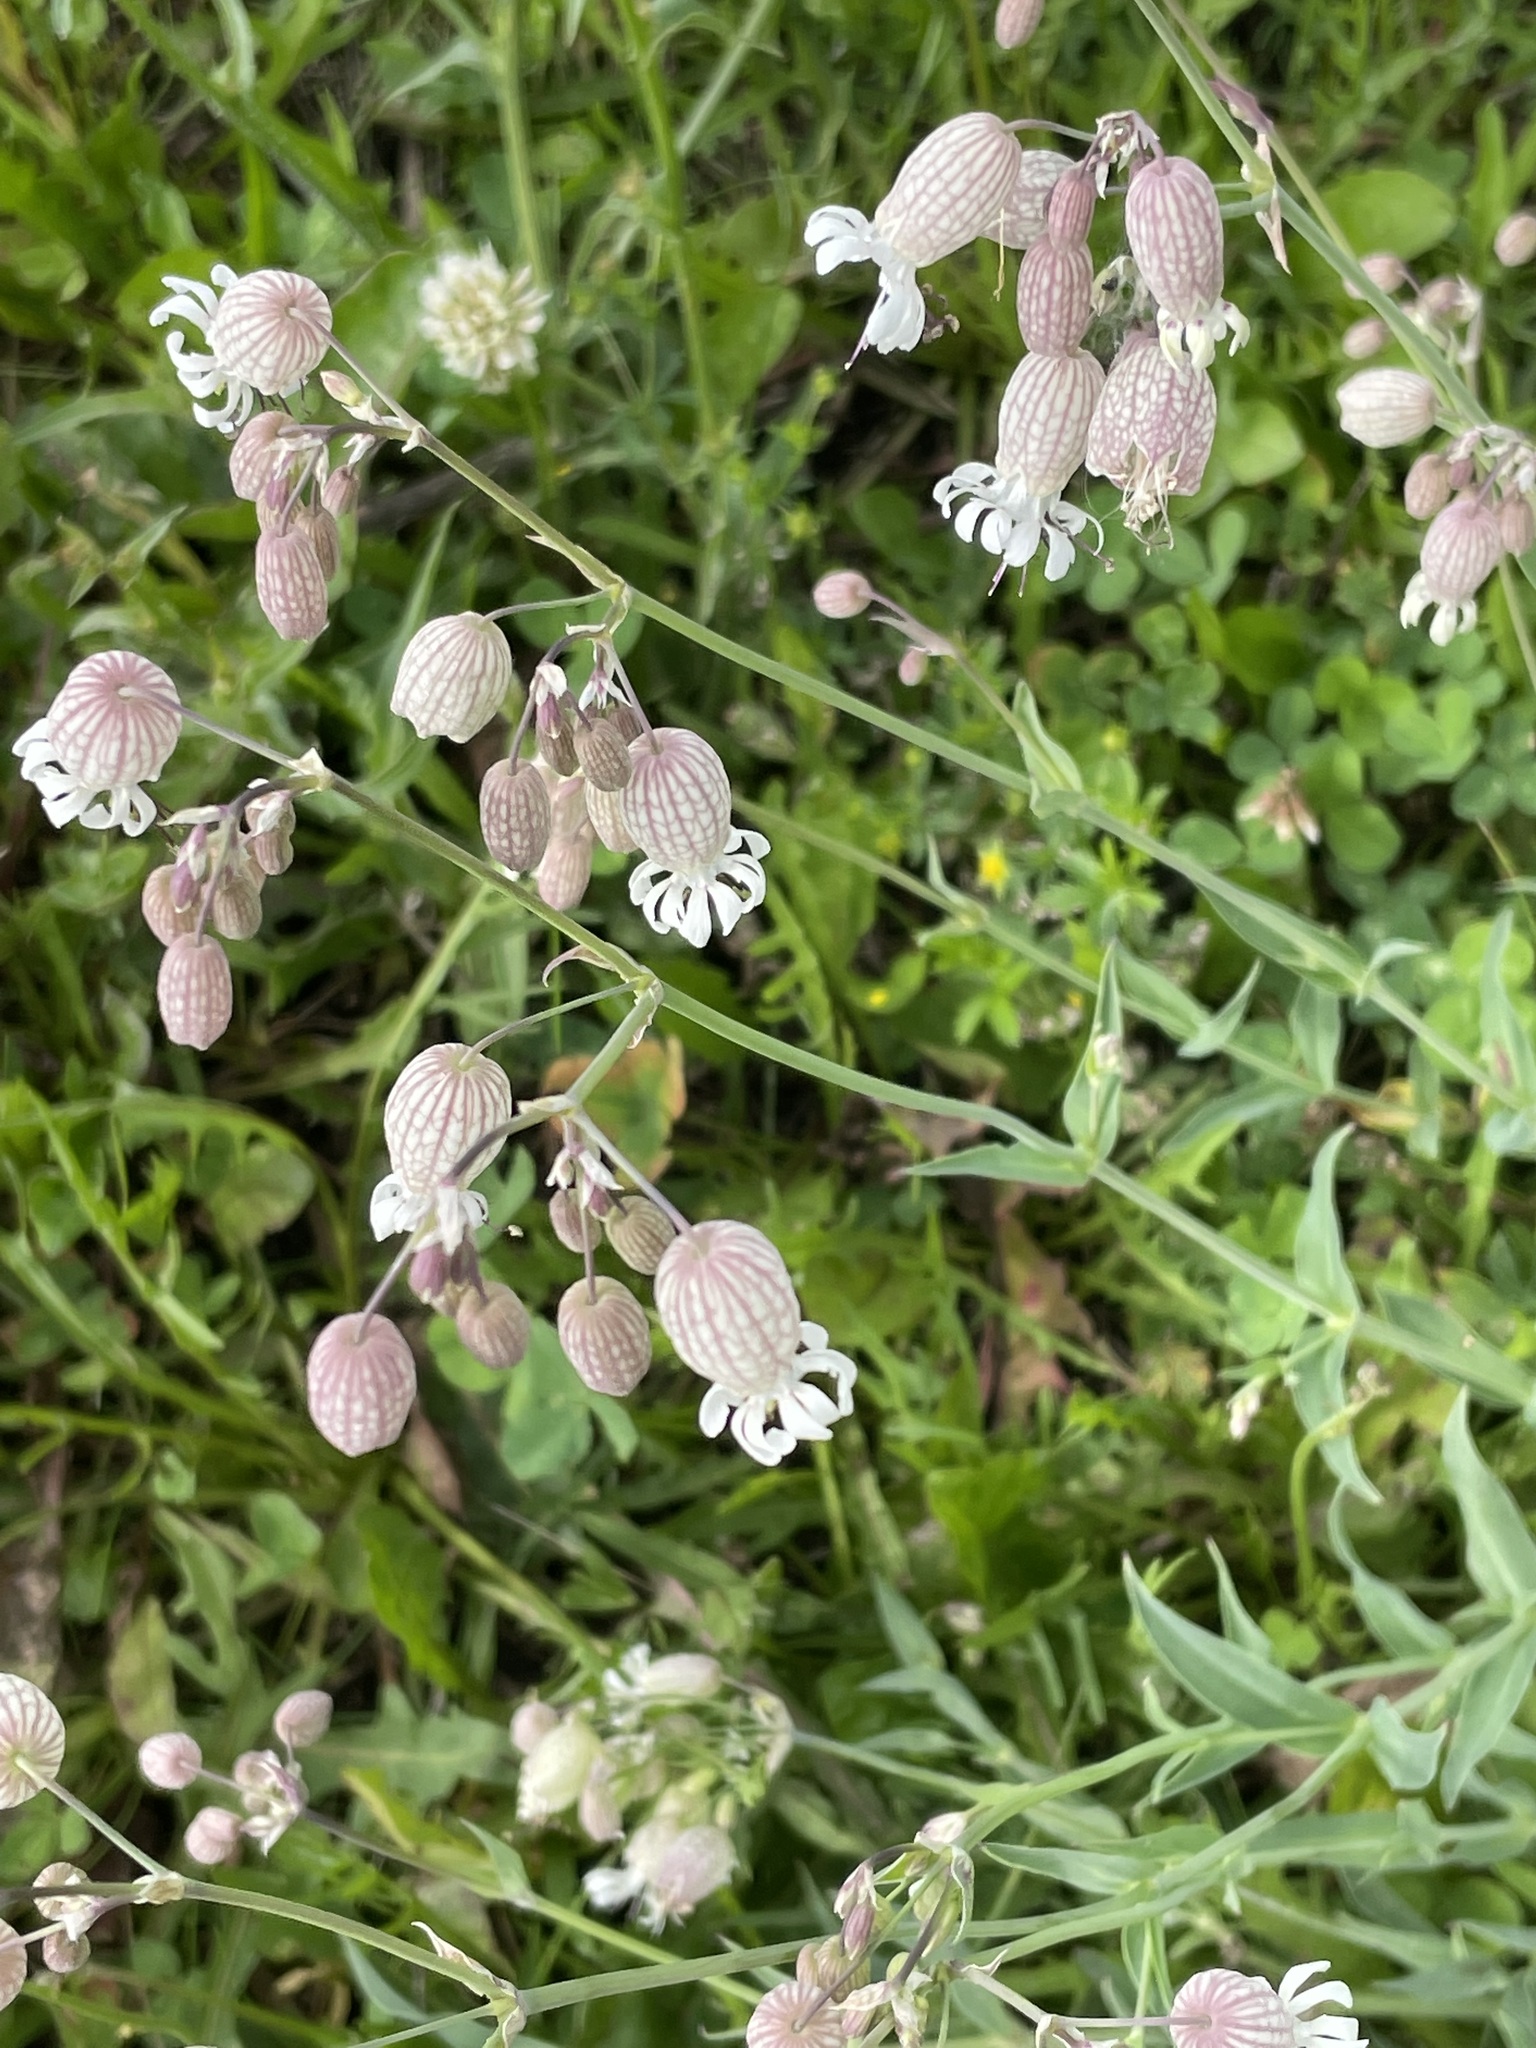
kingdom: Plantae
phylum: Tracheophyta
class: Magnoliopsida
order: Caryophyllales
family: Caryophyllaceae
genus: Silene
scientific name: Silene vulgaris
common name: Bladder campion
